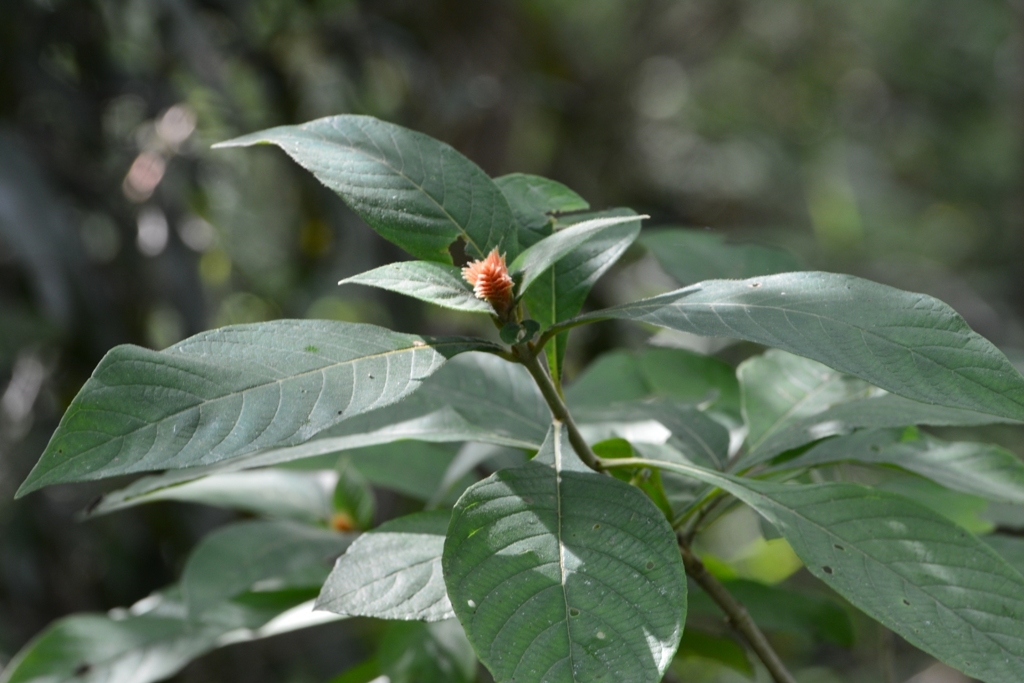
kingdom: Plantae
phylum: Tracheophyta
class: Magnoliopsida
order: Lamiales
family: Acanthaceae
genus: Aphelandra
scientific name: Aphelandra scabra
